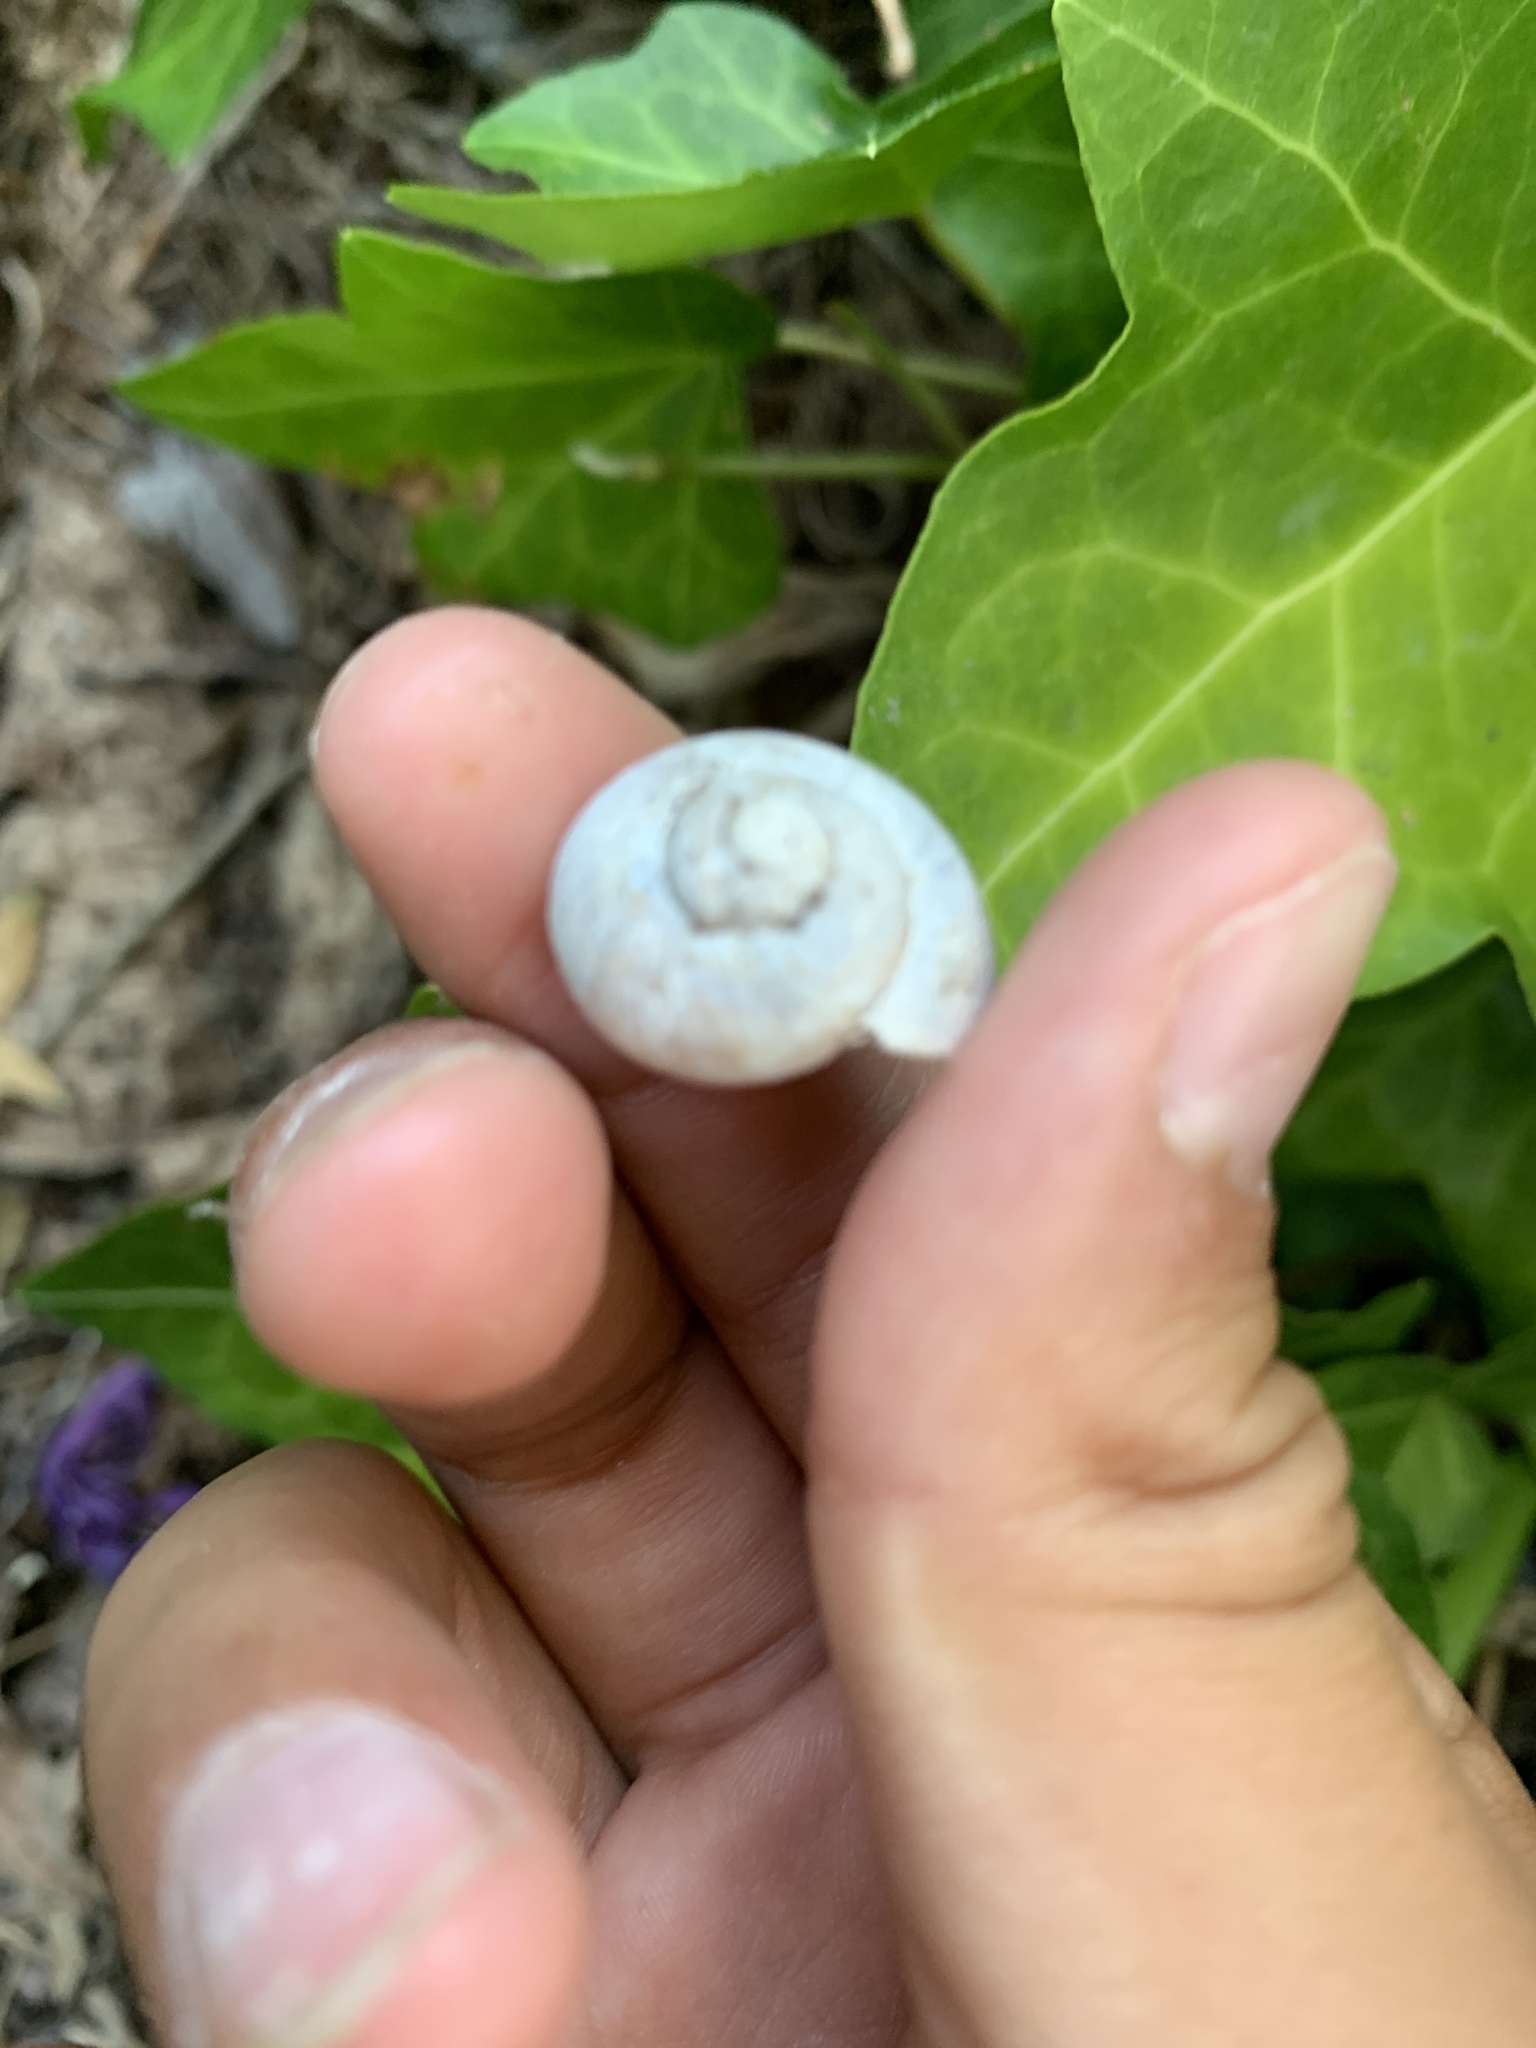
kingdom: Animalia
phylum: Mollusca
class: Gastropoda
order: Stylommatophora
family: Helicidae
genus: Cornu
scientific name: Cornu aspersum
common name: Brown garden snail
